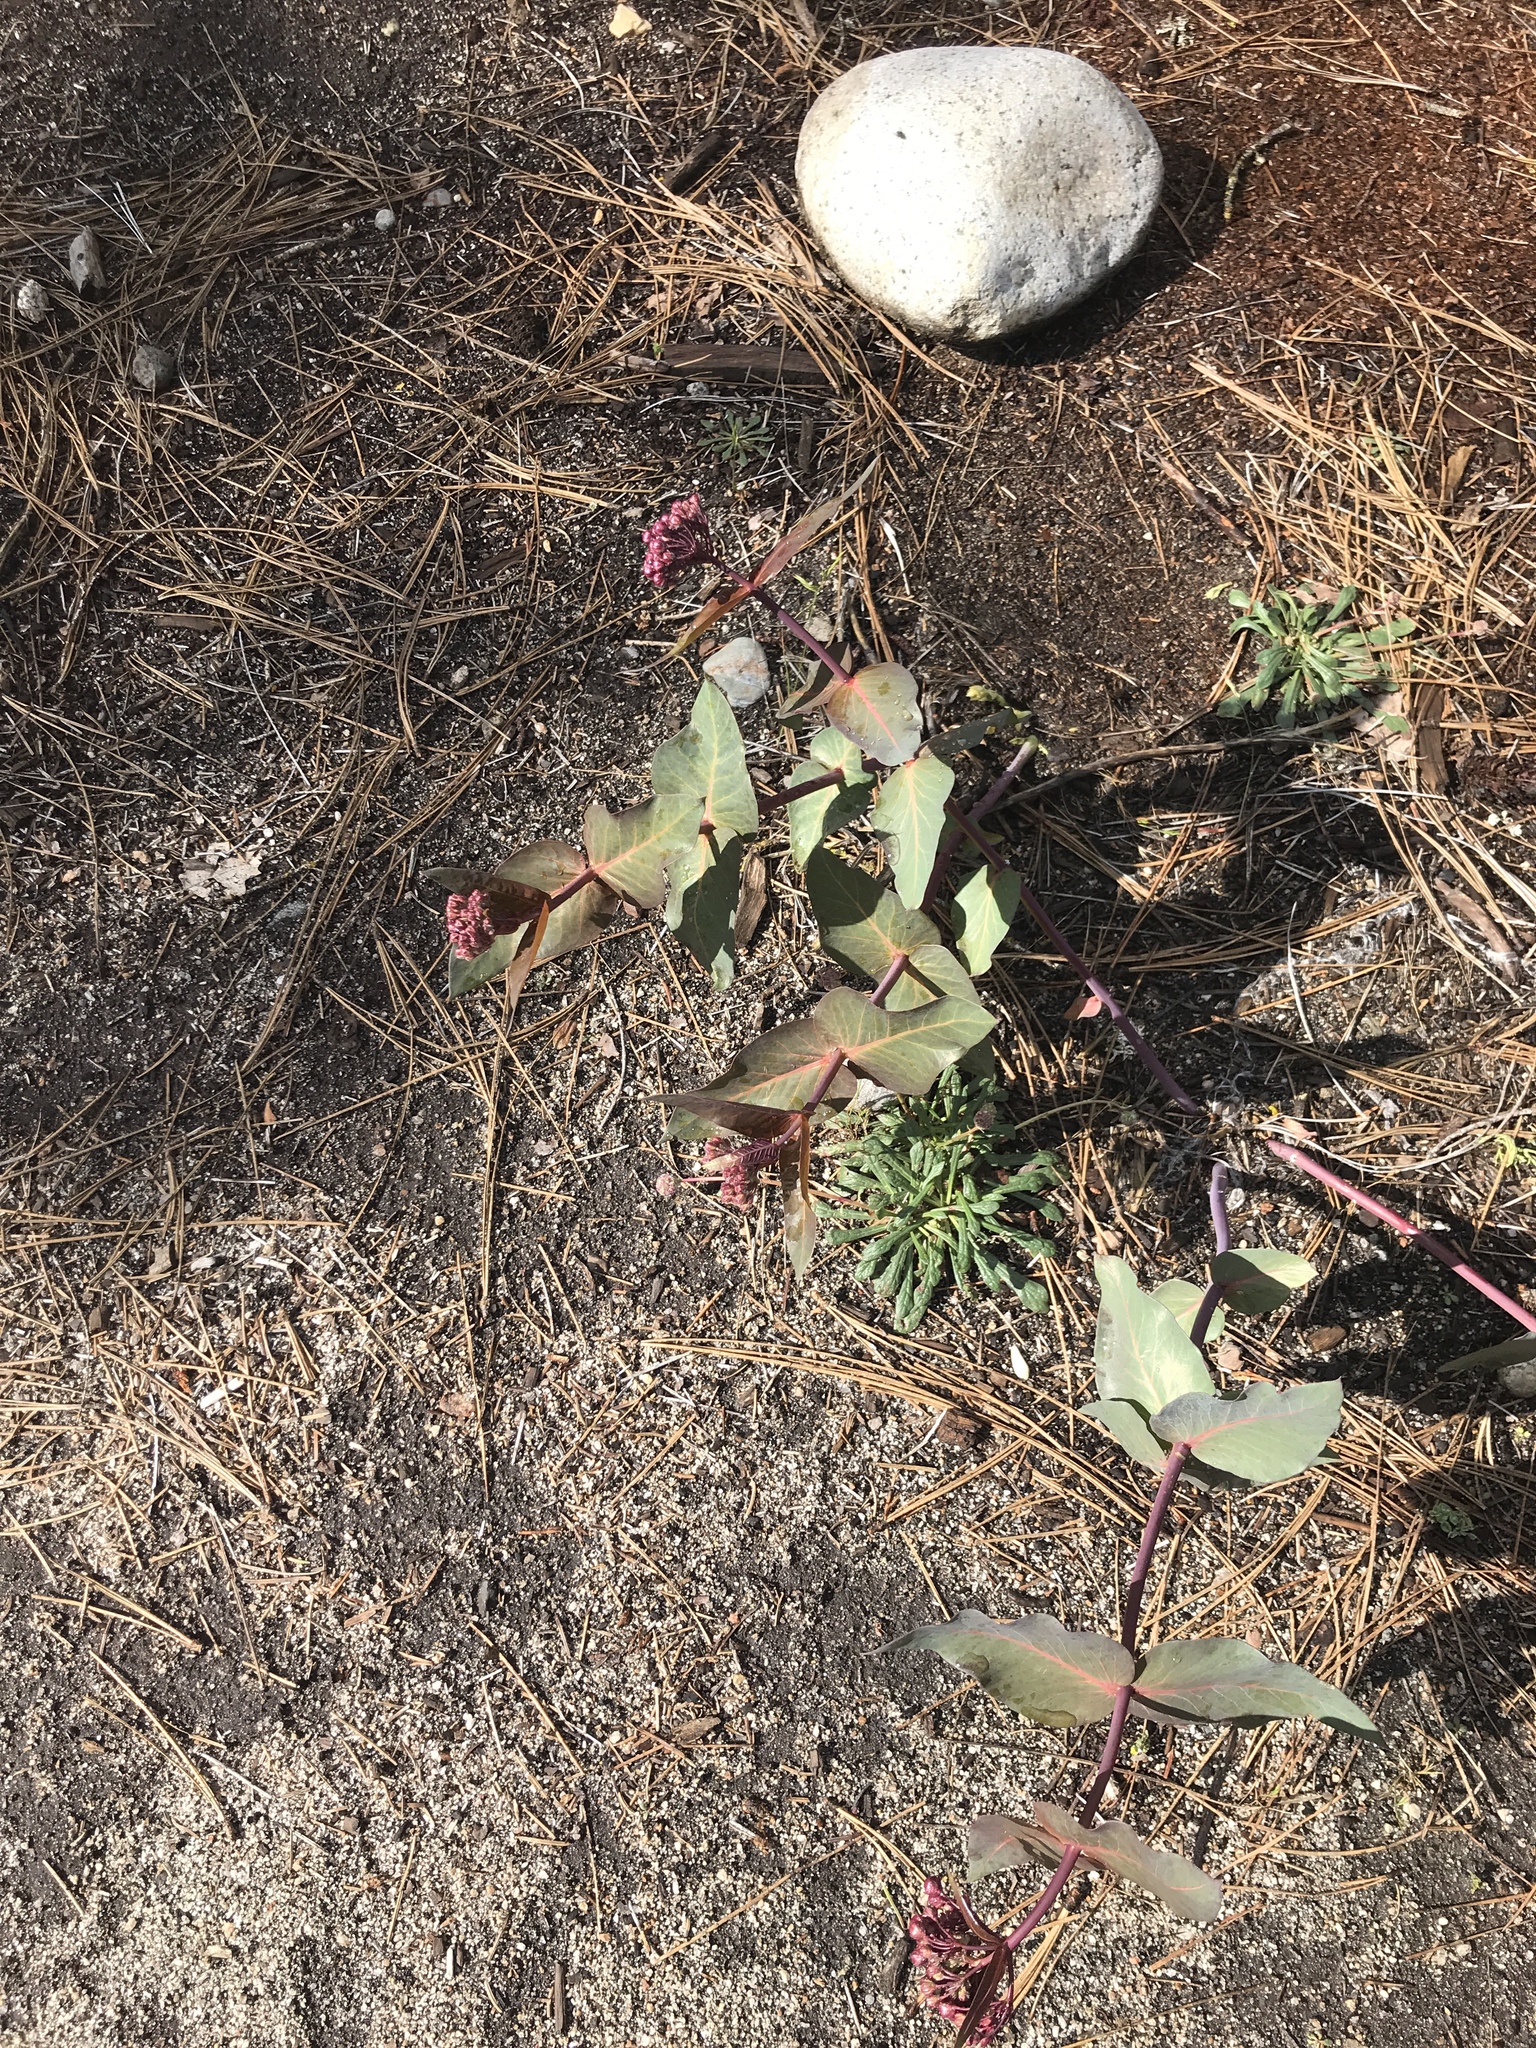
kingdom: Plantae
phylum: Tracheophyta
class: Magnoliopsida
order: Gentianales
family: Apocynaceae
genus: Asclepias
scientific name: Asclepias cordifolia
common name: Purple milkweed
